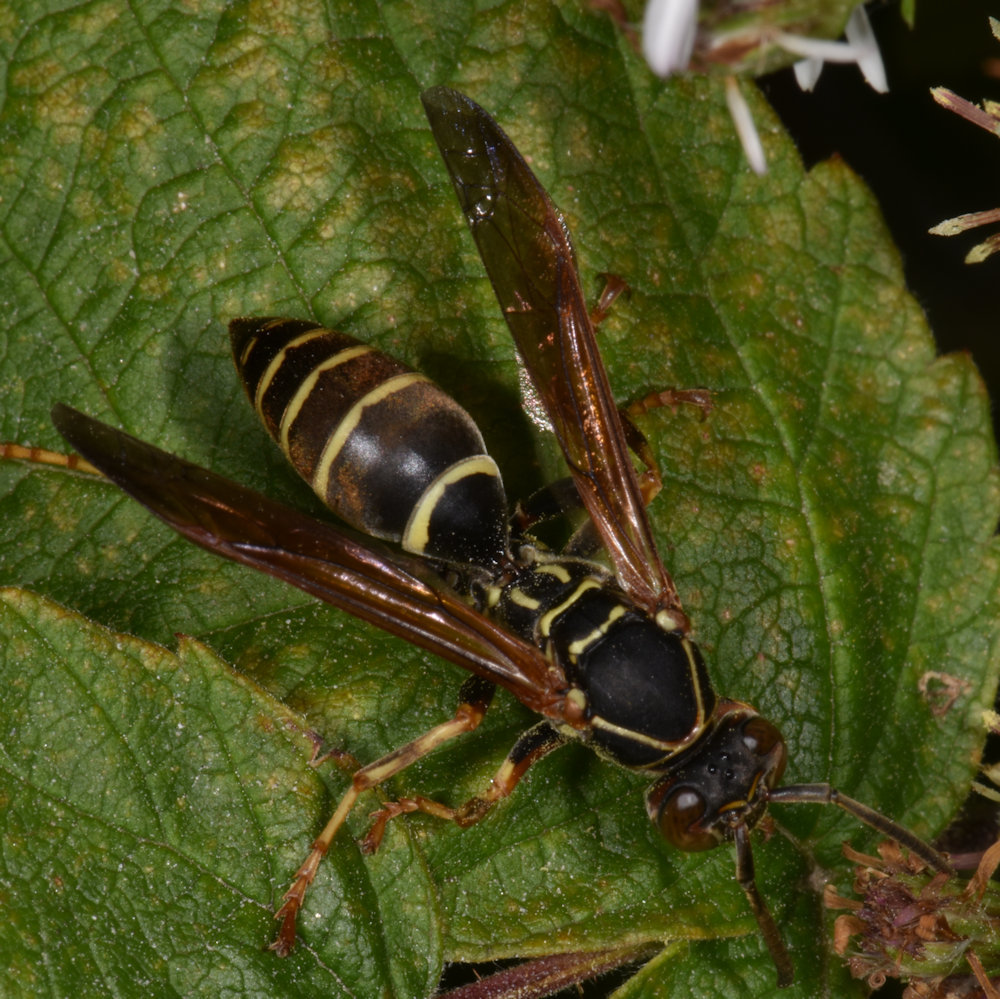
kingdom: Animalia
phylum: Arthropoda
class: Insecta
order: Hymenoptera
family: Eumenidae
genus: Polistes
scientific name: Polistes fuscatus
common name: Dark paper wasp
